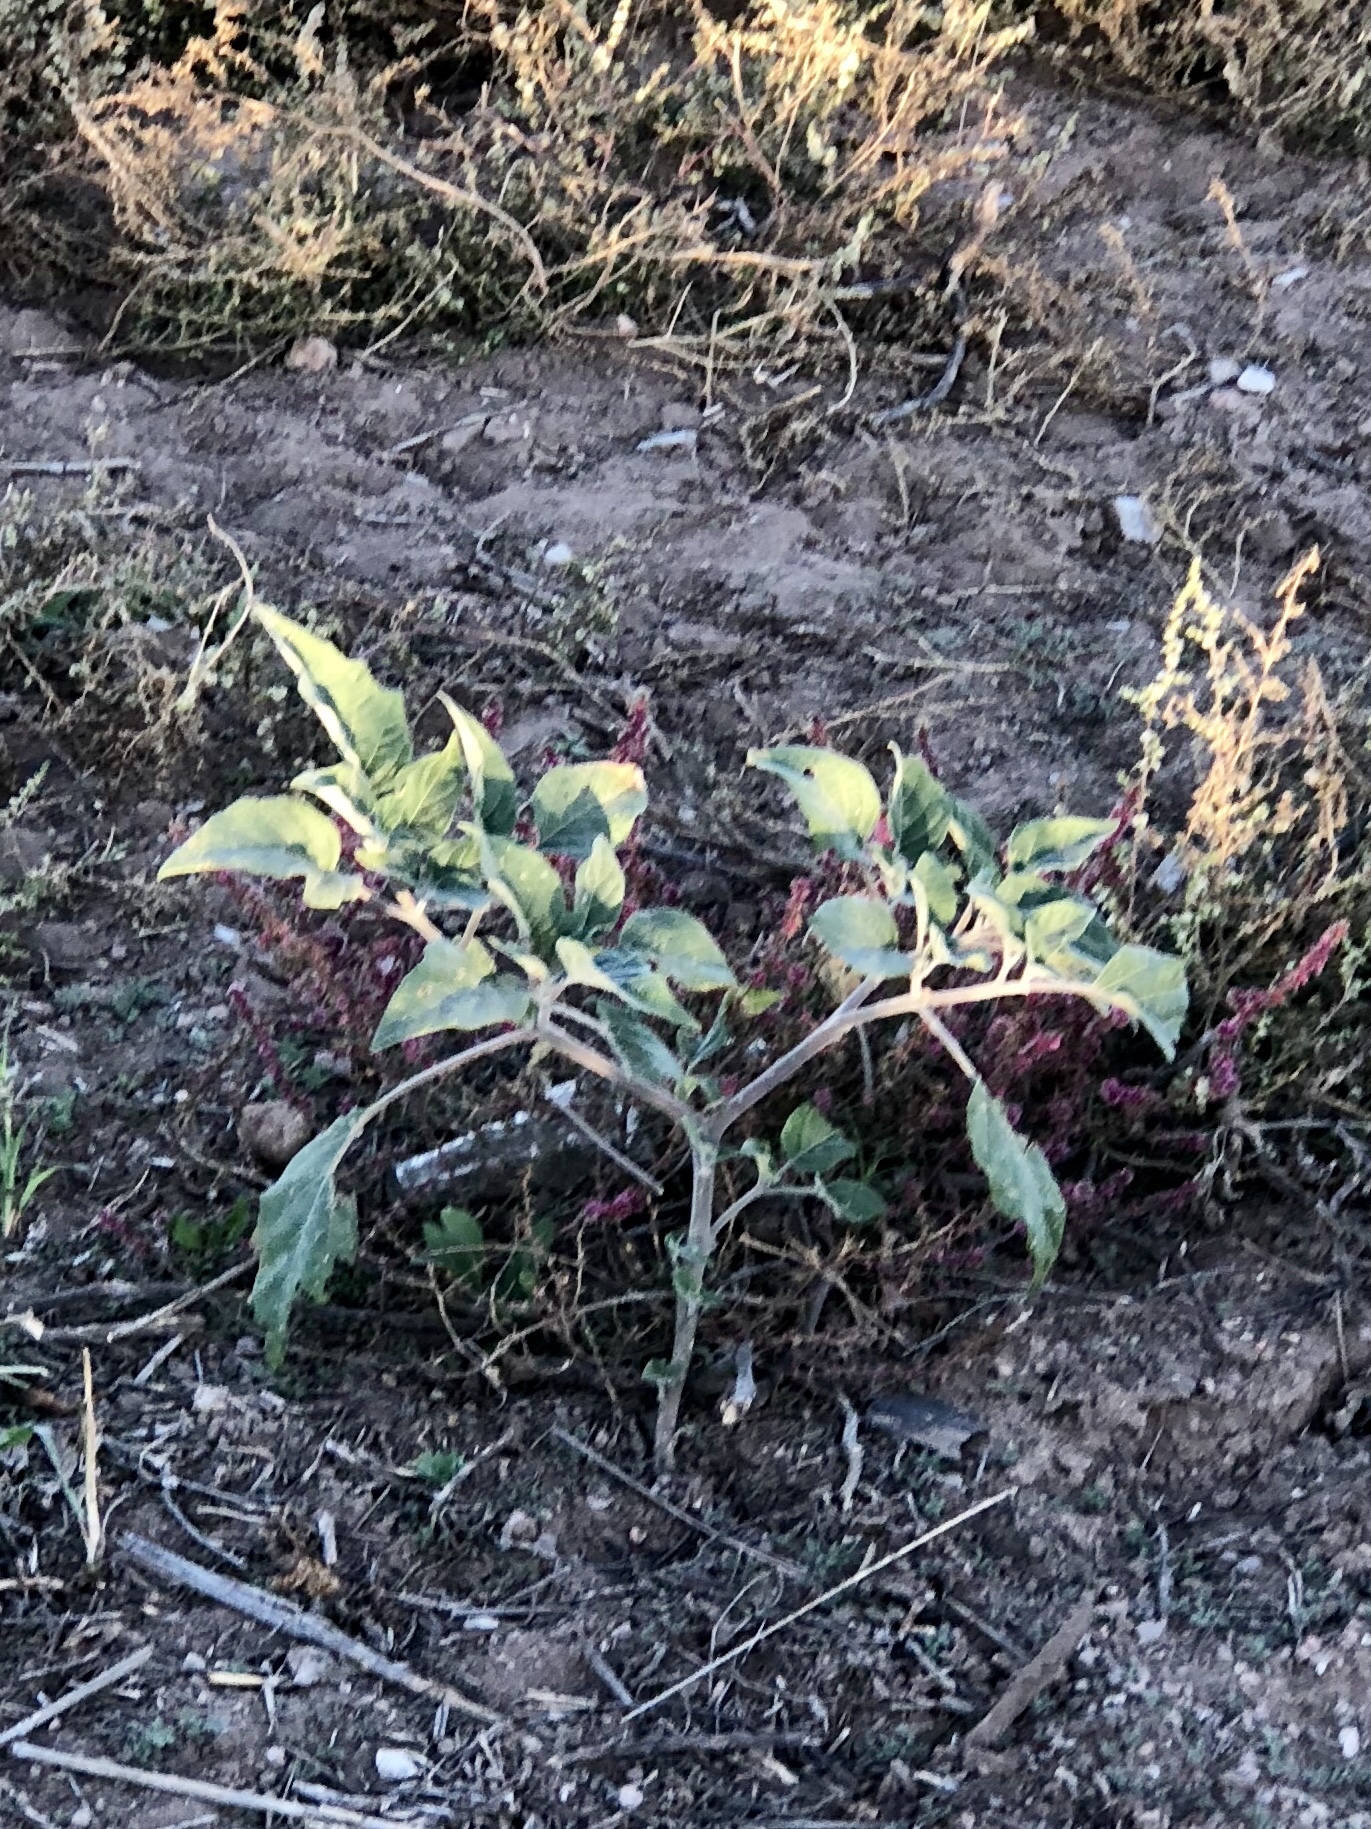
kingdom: Plantae
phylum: Tracheophyta
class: Magnoliopsida
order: Solanales
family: Solanaceae
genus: Datura
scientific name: Datura wrightii
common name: Sacred thorn-apple
